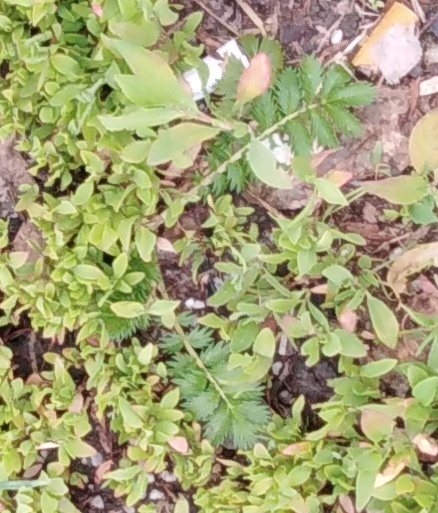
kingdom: Plantae
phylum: Tracheophyta
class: Magnoliopsida
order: Rosales
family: Rosaceae
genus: Argentina
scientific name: Argentina anserina
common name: Common silverweed
